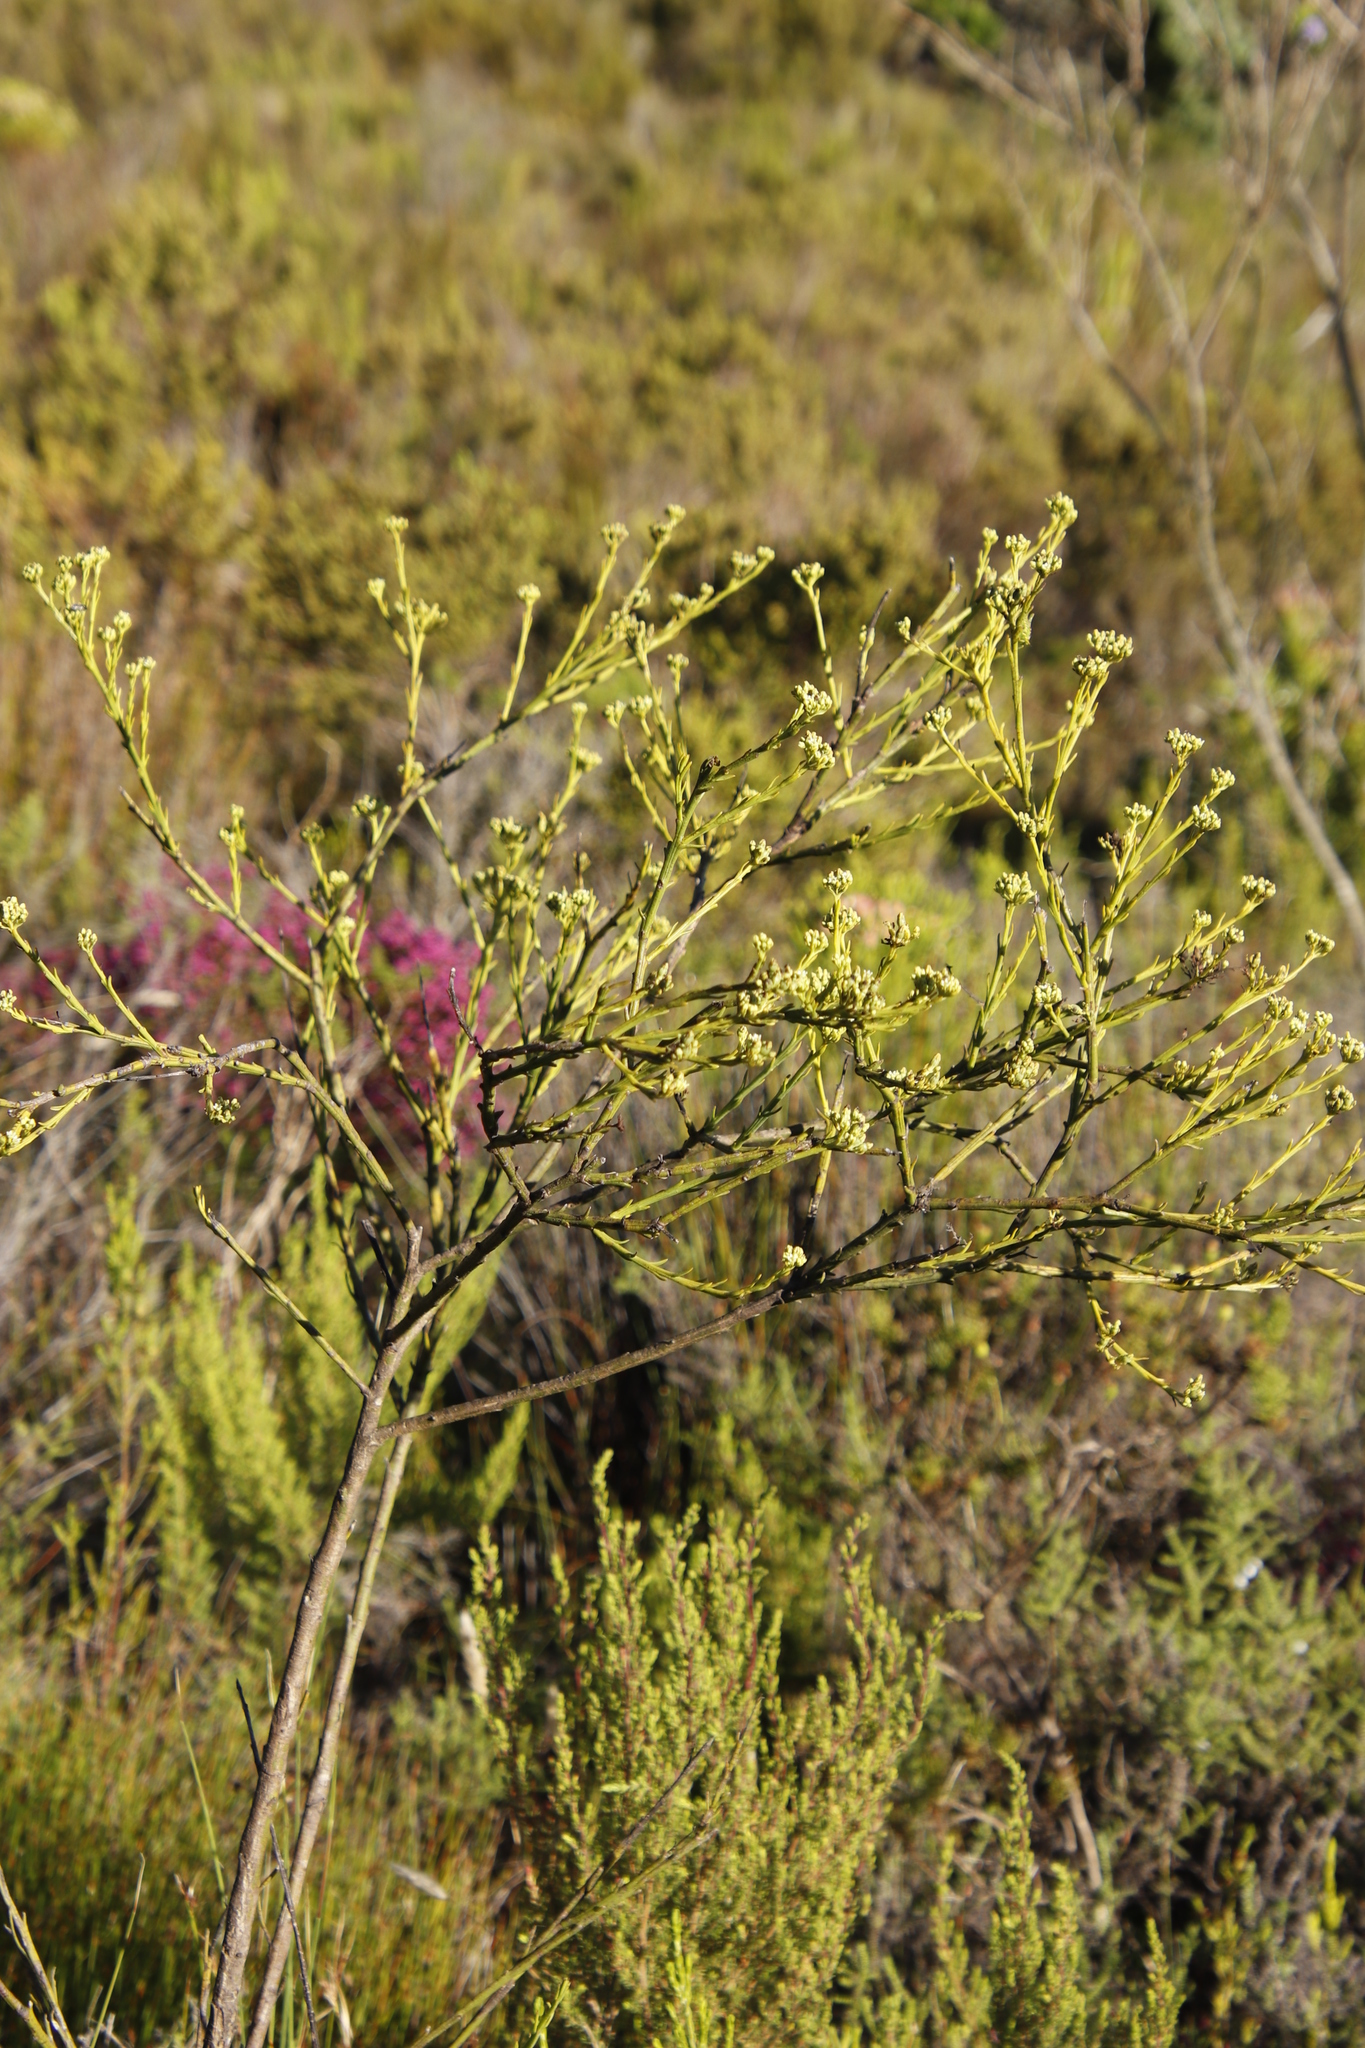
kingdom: Plantae
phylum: Tracheophyta
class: Magnoliopsida
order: Santalales
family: Thesiaceae
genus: Thesium
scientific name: Thesium strictum
